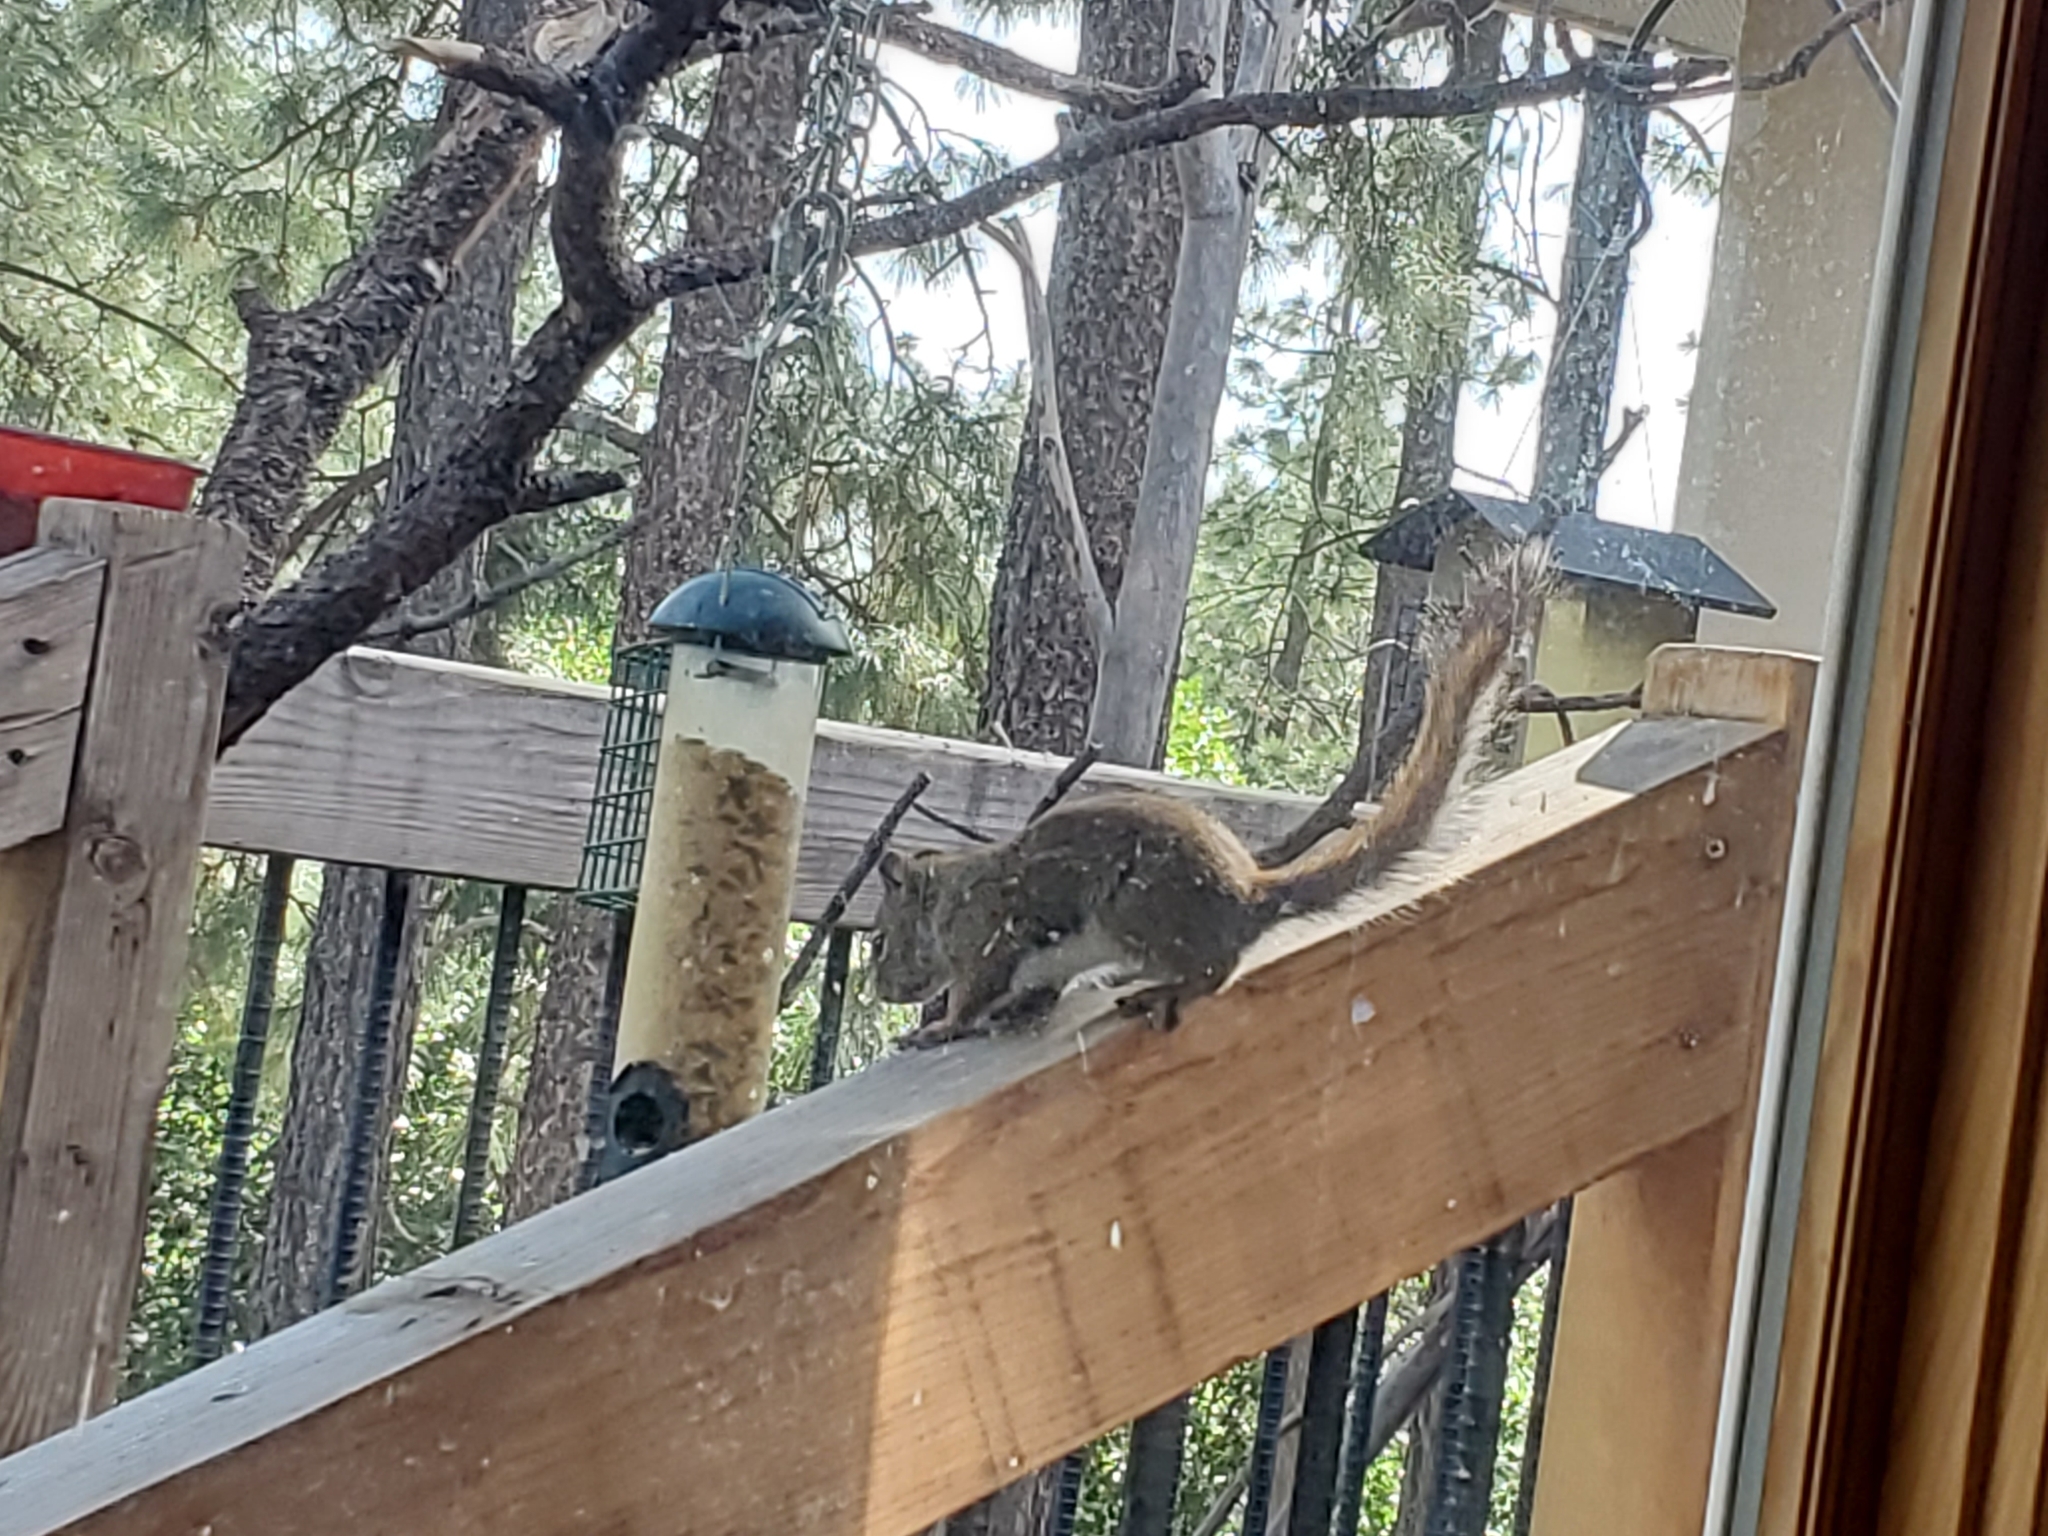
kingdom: Animalia
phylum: Chordata
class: Mammalia
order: Rodentia
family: Sciuridae
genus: Tamiasciurus
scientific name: Tamiasciurus hudsonicus
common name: Red squirrel
